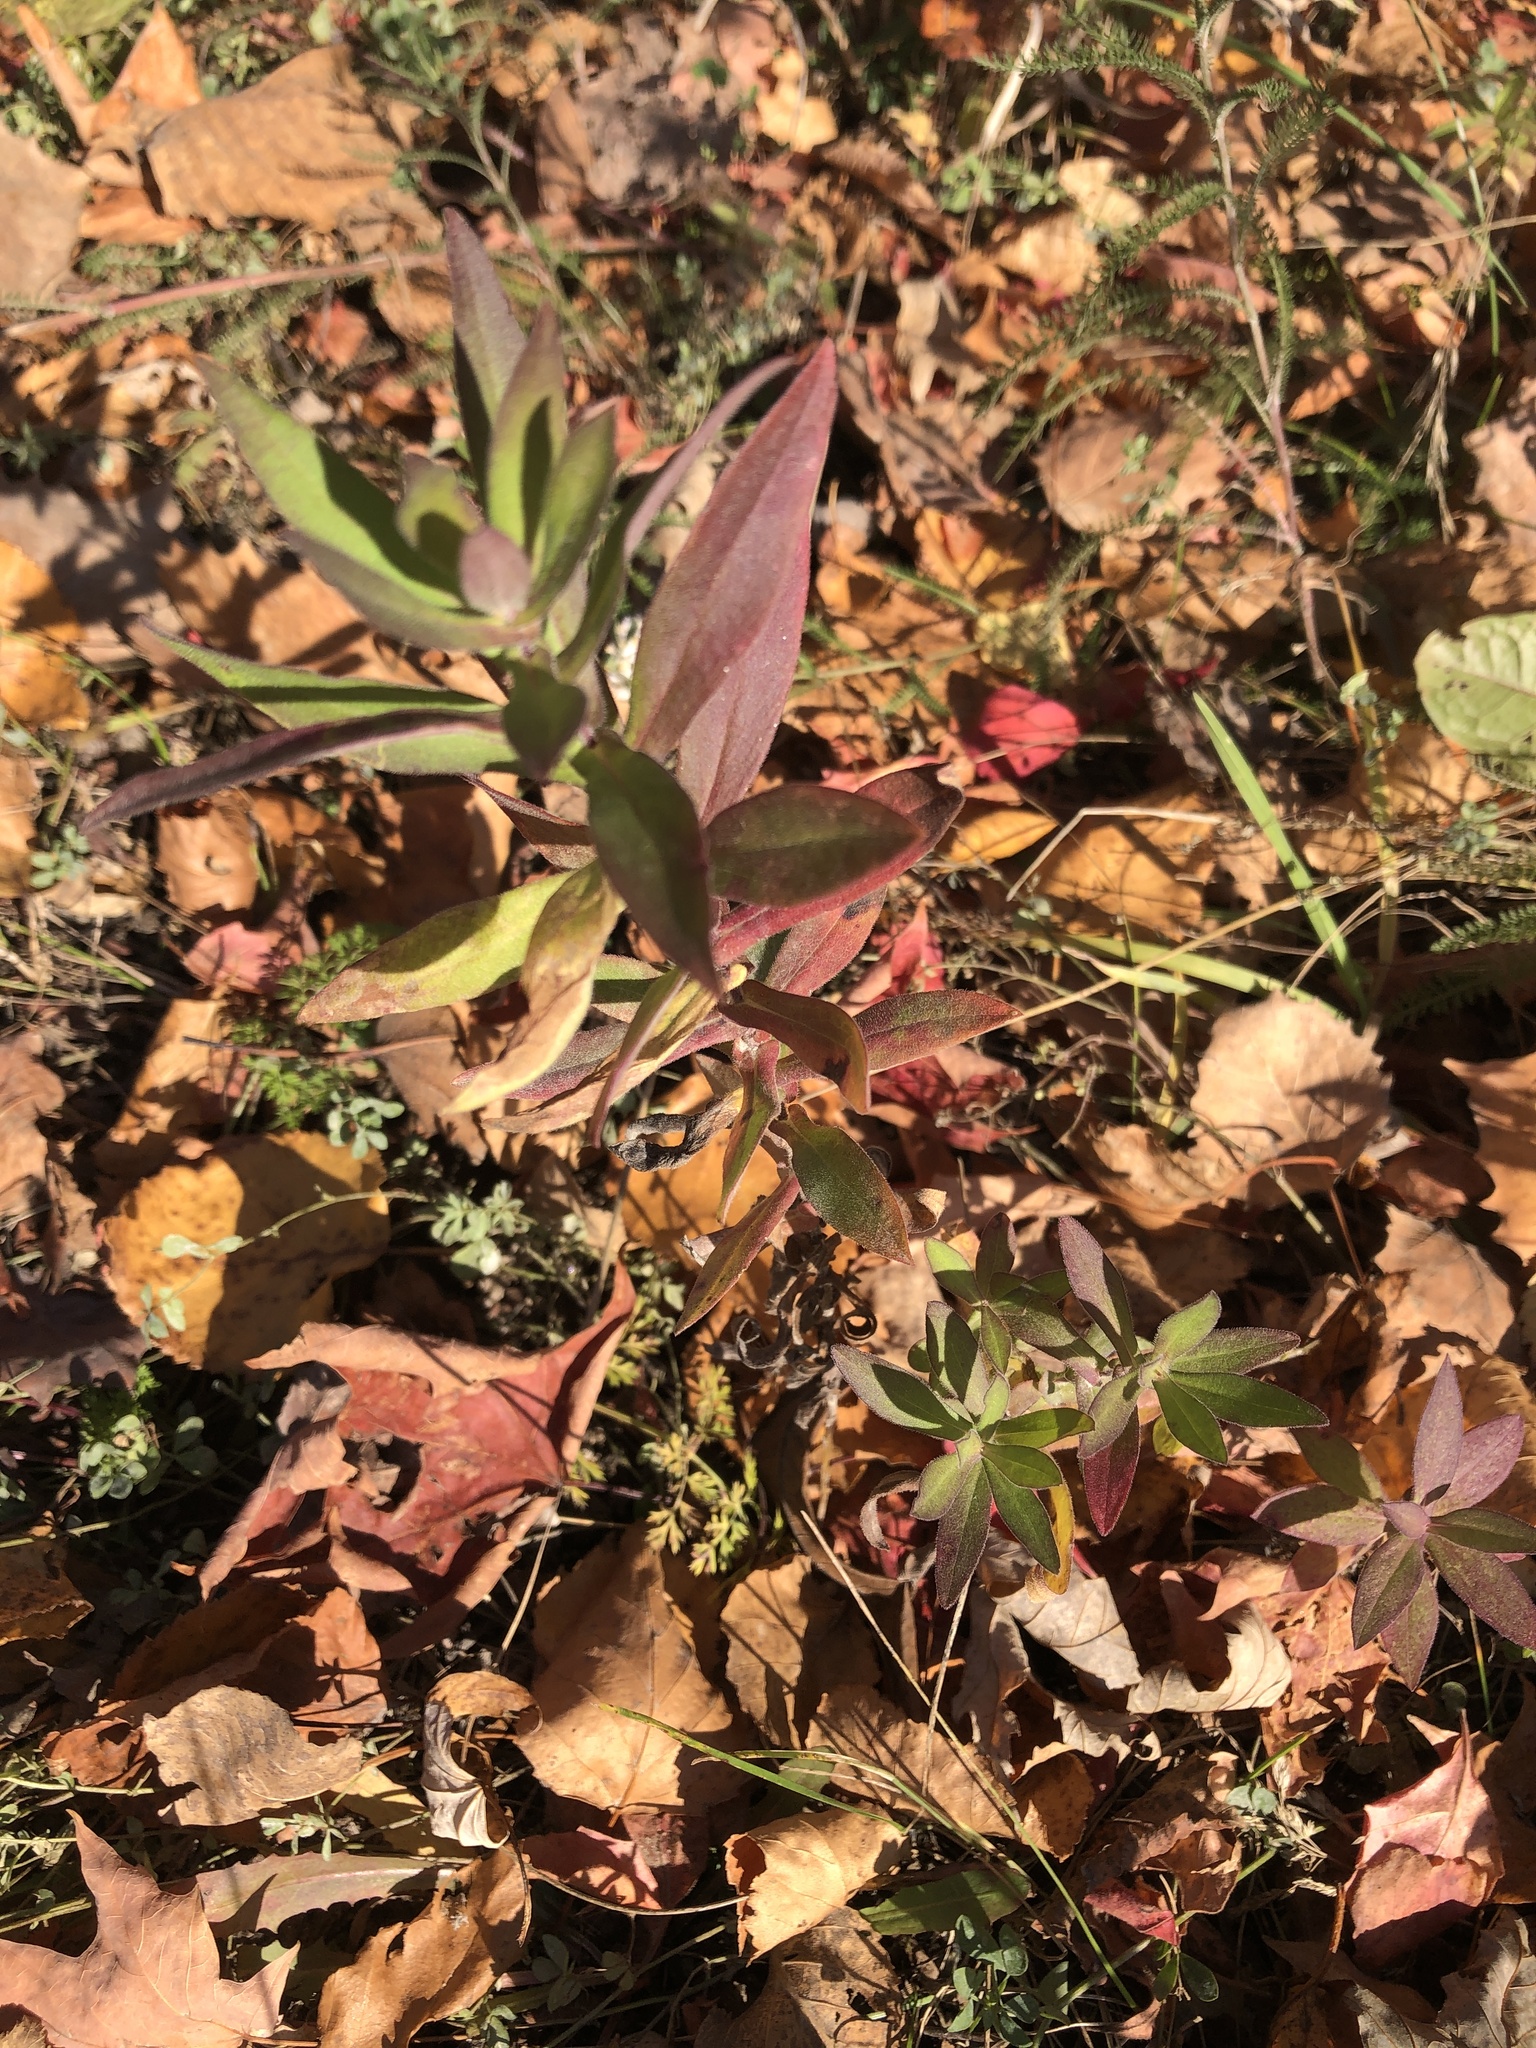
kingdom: Plantae
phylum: Tracheophyta
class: Magnoliopsida
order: Asterales
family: Asteraceae
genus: Symphyotrichum
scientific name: Symphyotrichum novae-angliae
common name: Michaelmas daisy
